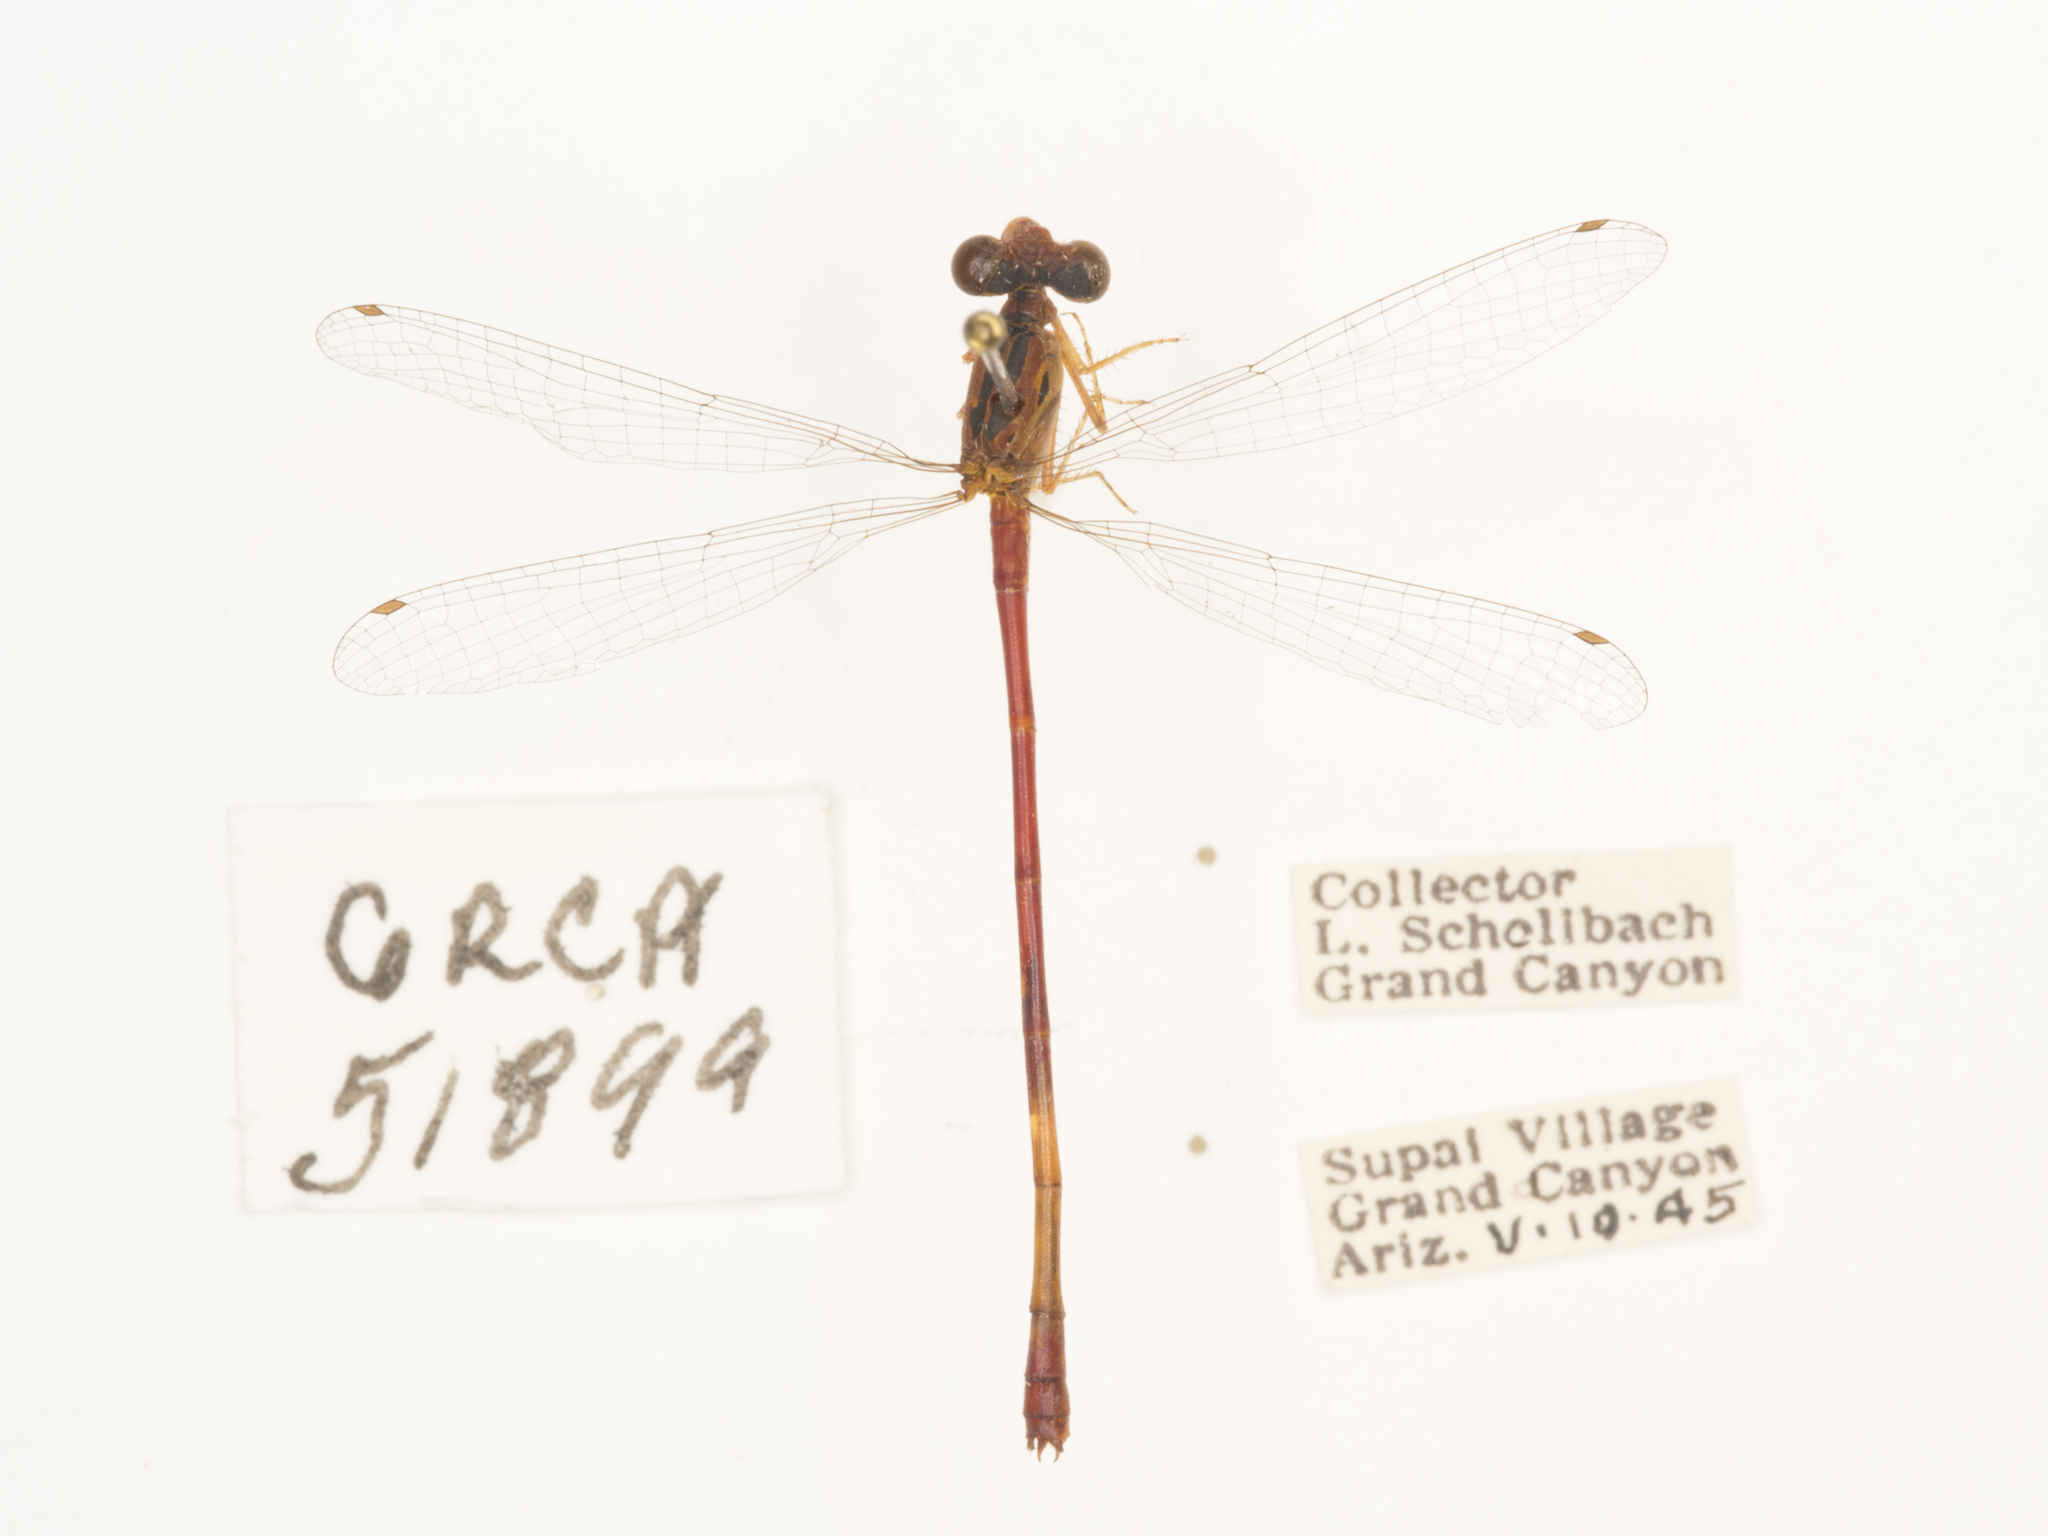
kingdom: Animalia
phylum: Arthropoda
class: Insecta
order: Odonata
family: Coenagrionidae
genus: Telebasis
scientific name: Telebasis salva
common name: Desert firetail
